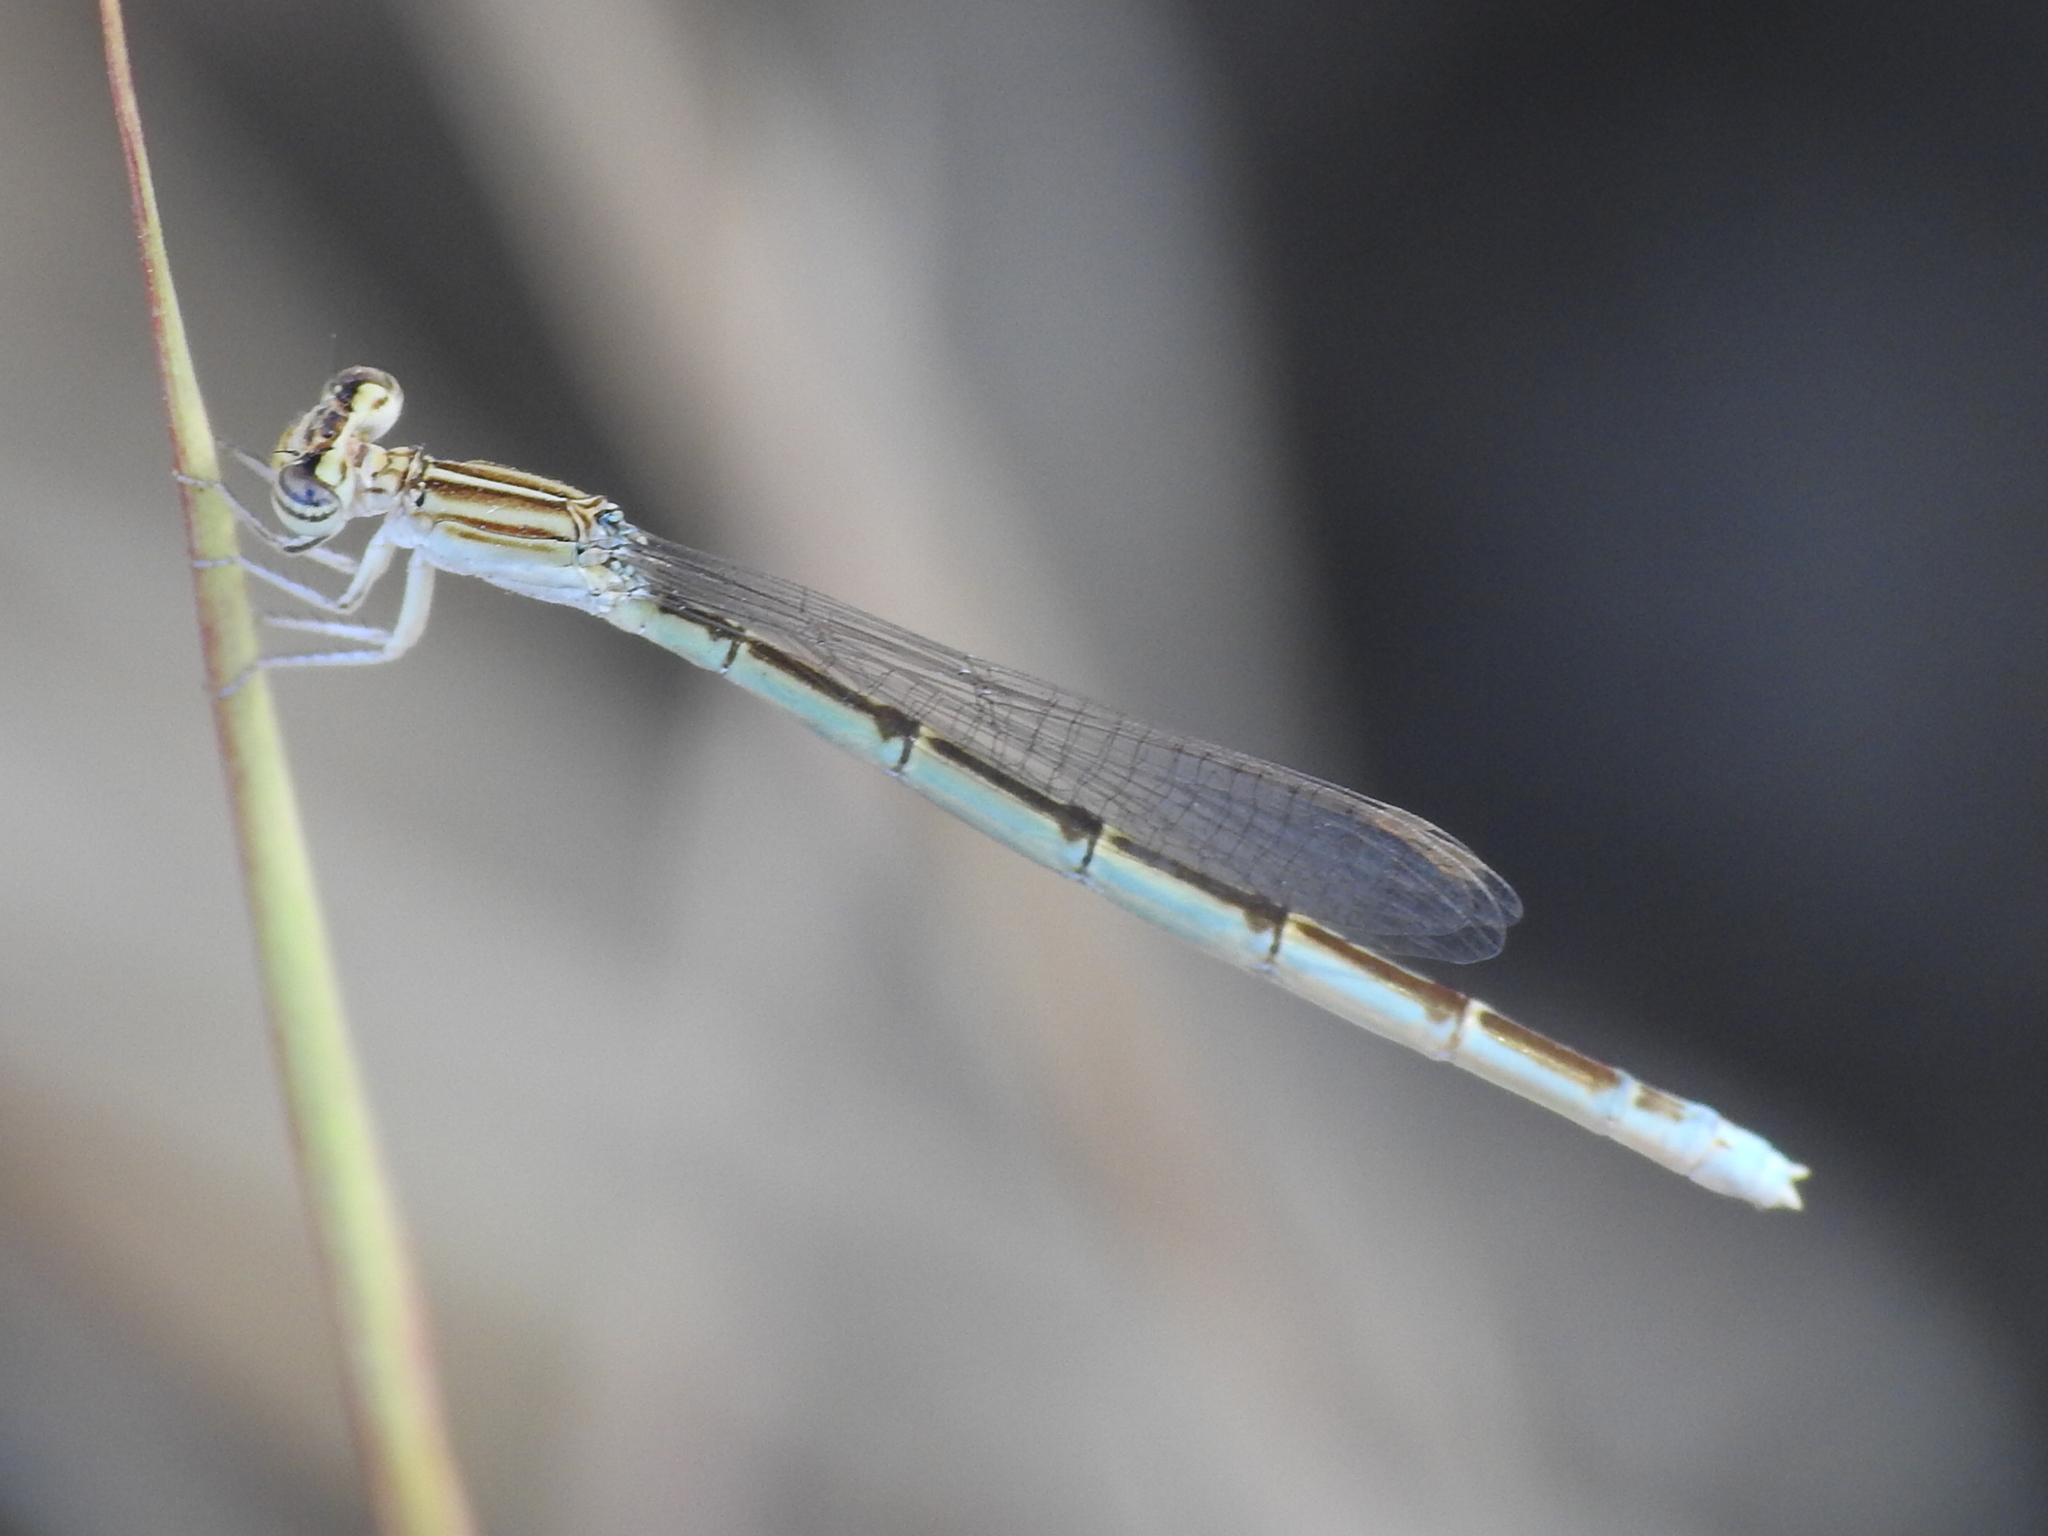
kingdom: Animalia
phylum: Arthropoda
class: Insecta
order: Odonata
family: Coenagrionidae
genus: Enallagma
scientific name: Enallagma basidens
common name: Double-striped bluet
